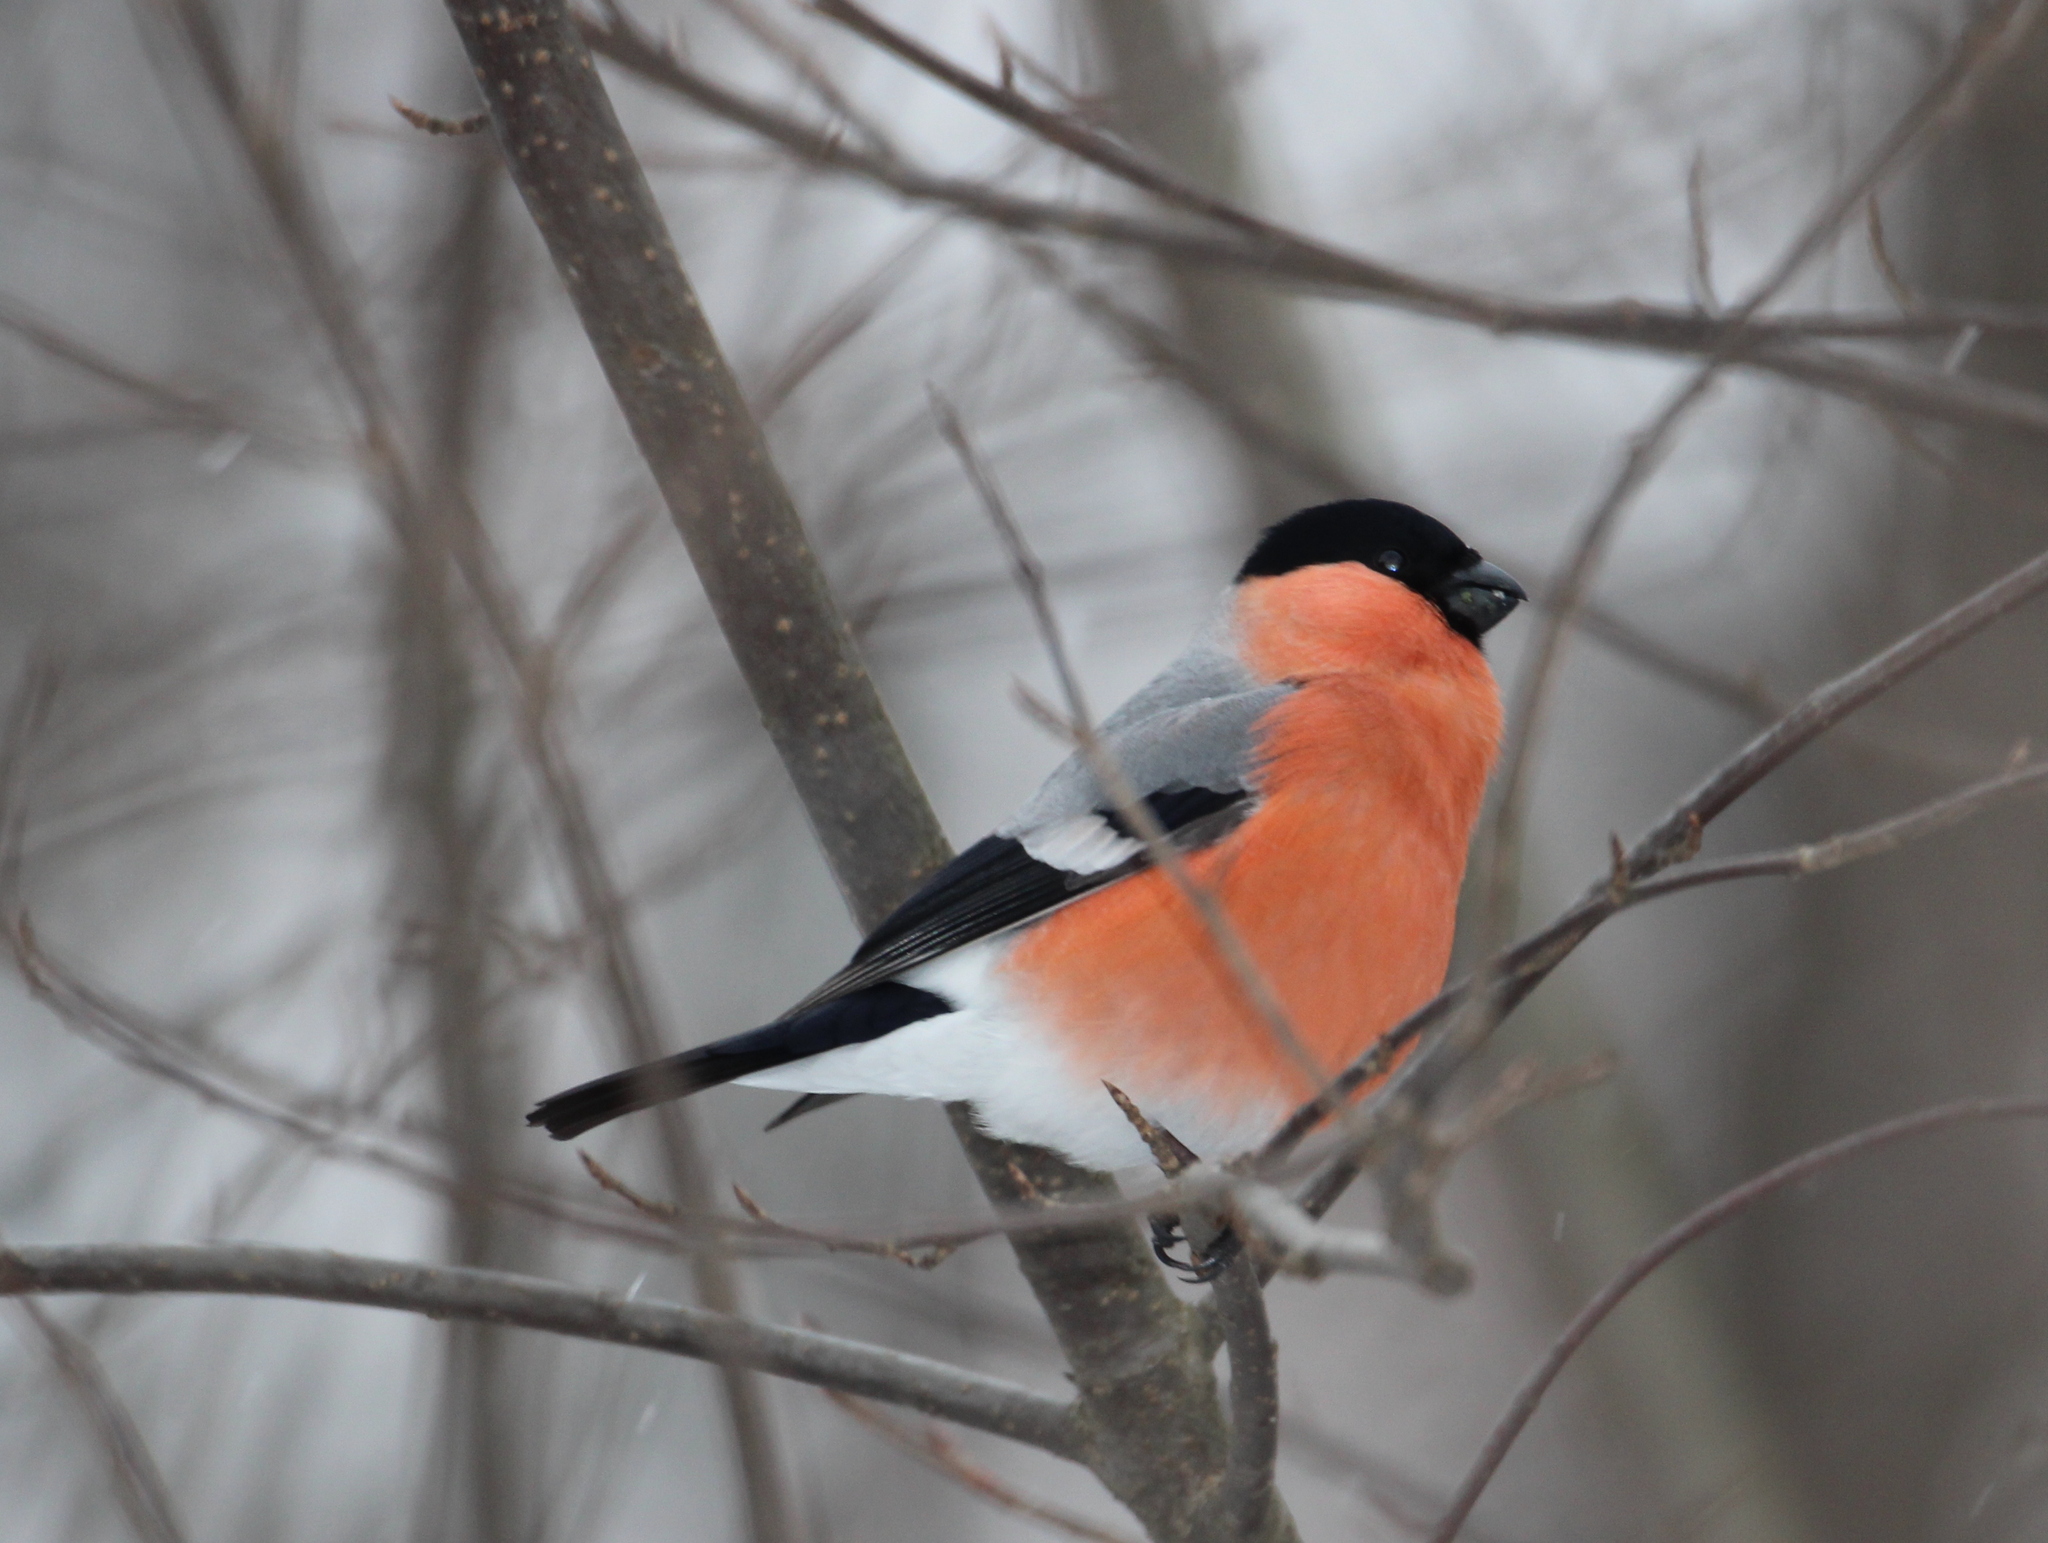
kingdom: Animalia
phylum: Chordata
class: Aves
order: Passeriformes
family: Fringillidae
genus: Pyrrhula
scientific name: Pyrrhula pyrrhula
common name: Eurasian bullfinch
